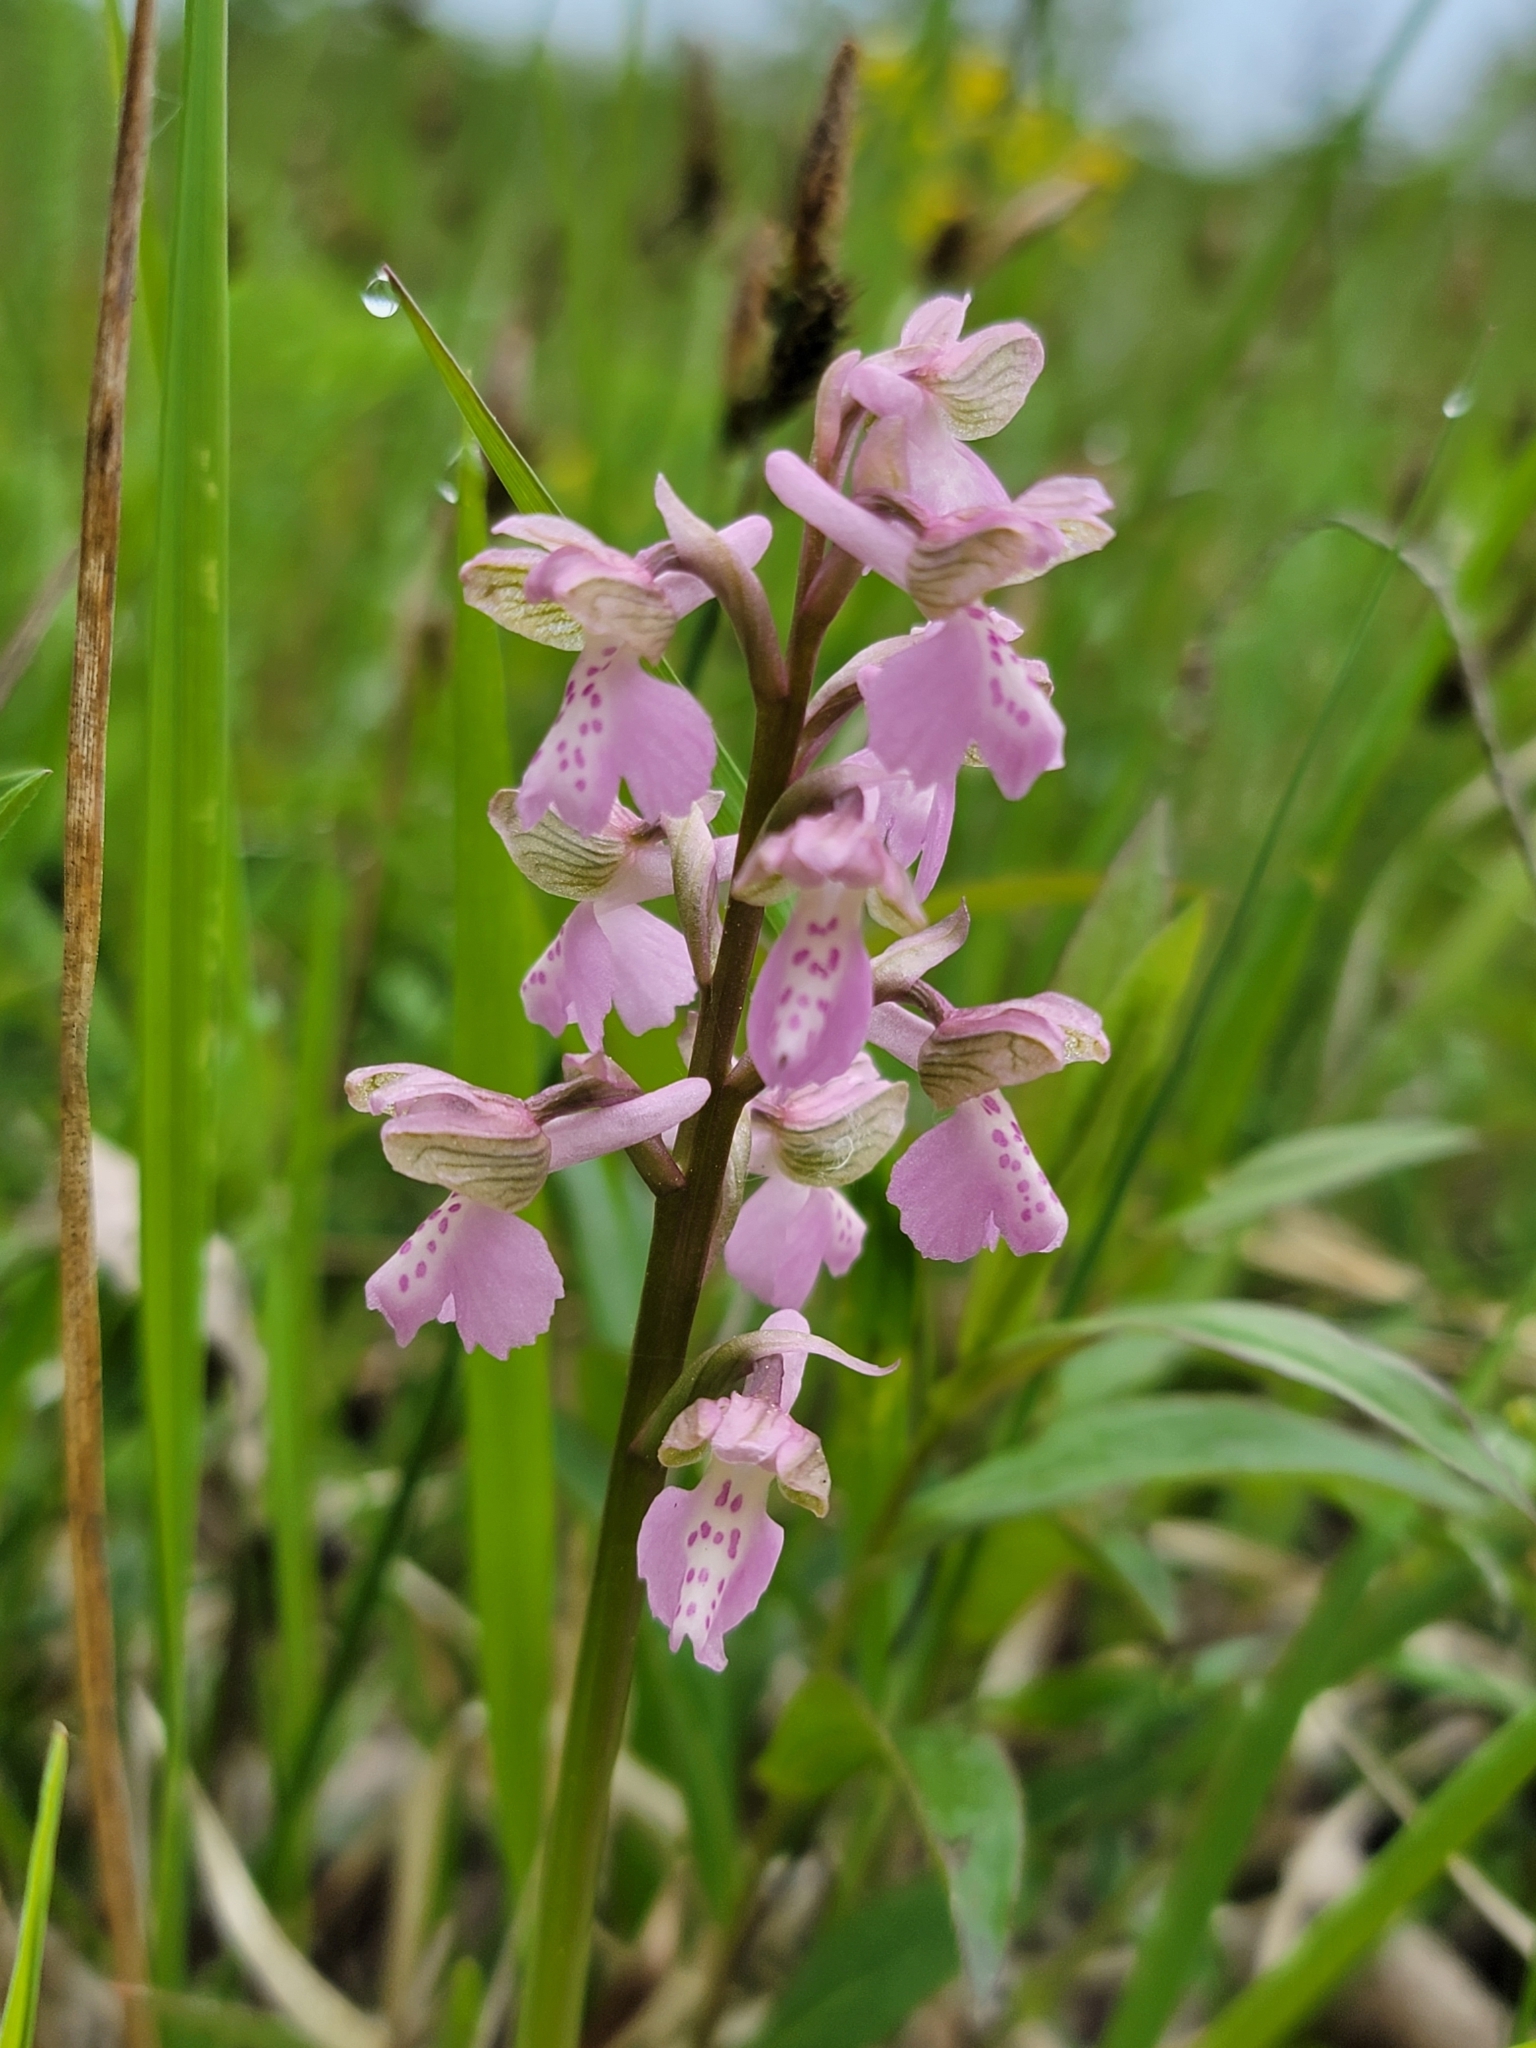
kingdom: Plantae
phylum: Tracheophyta
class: Liliopsida
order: Asparagales
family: Orchidaceae
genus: Anacamptis
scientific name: Anacamptis morio
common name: Green-winged orchid
